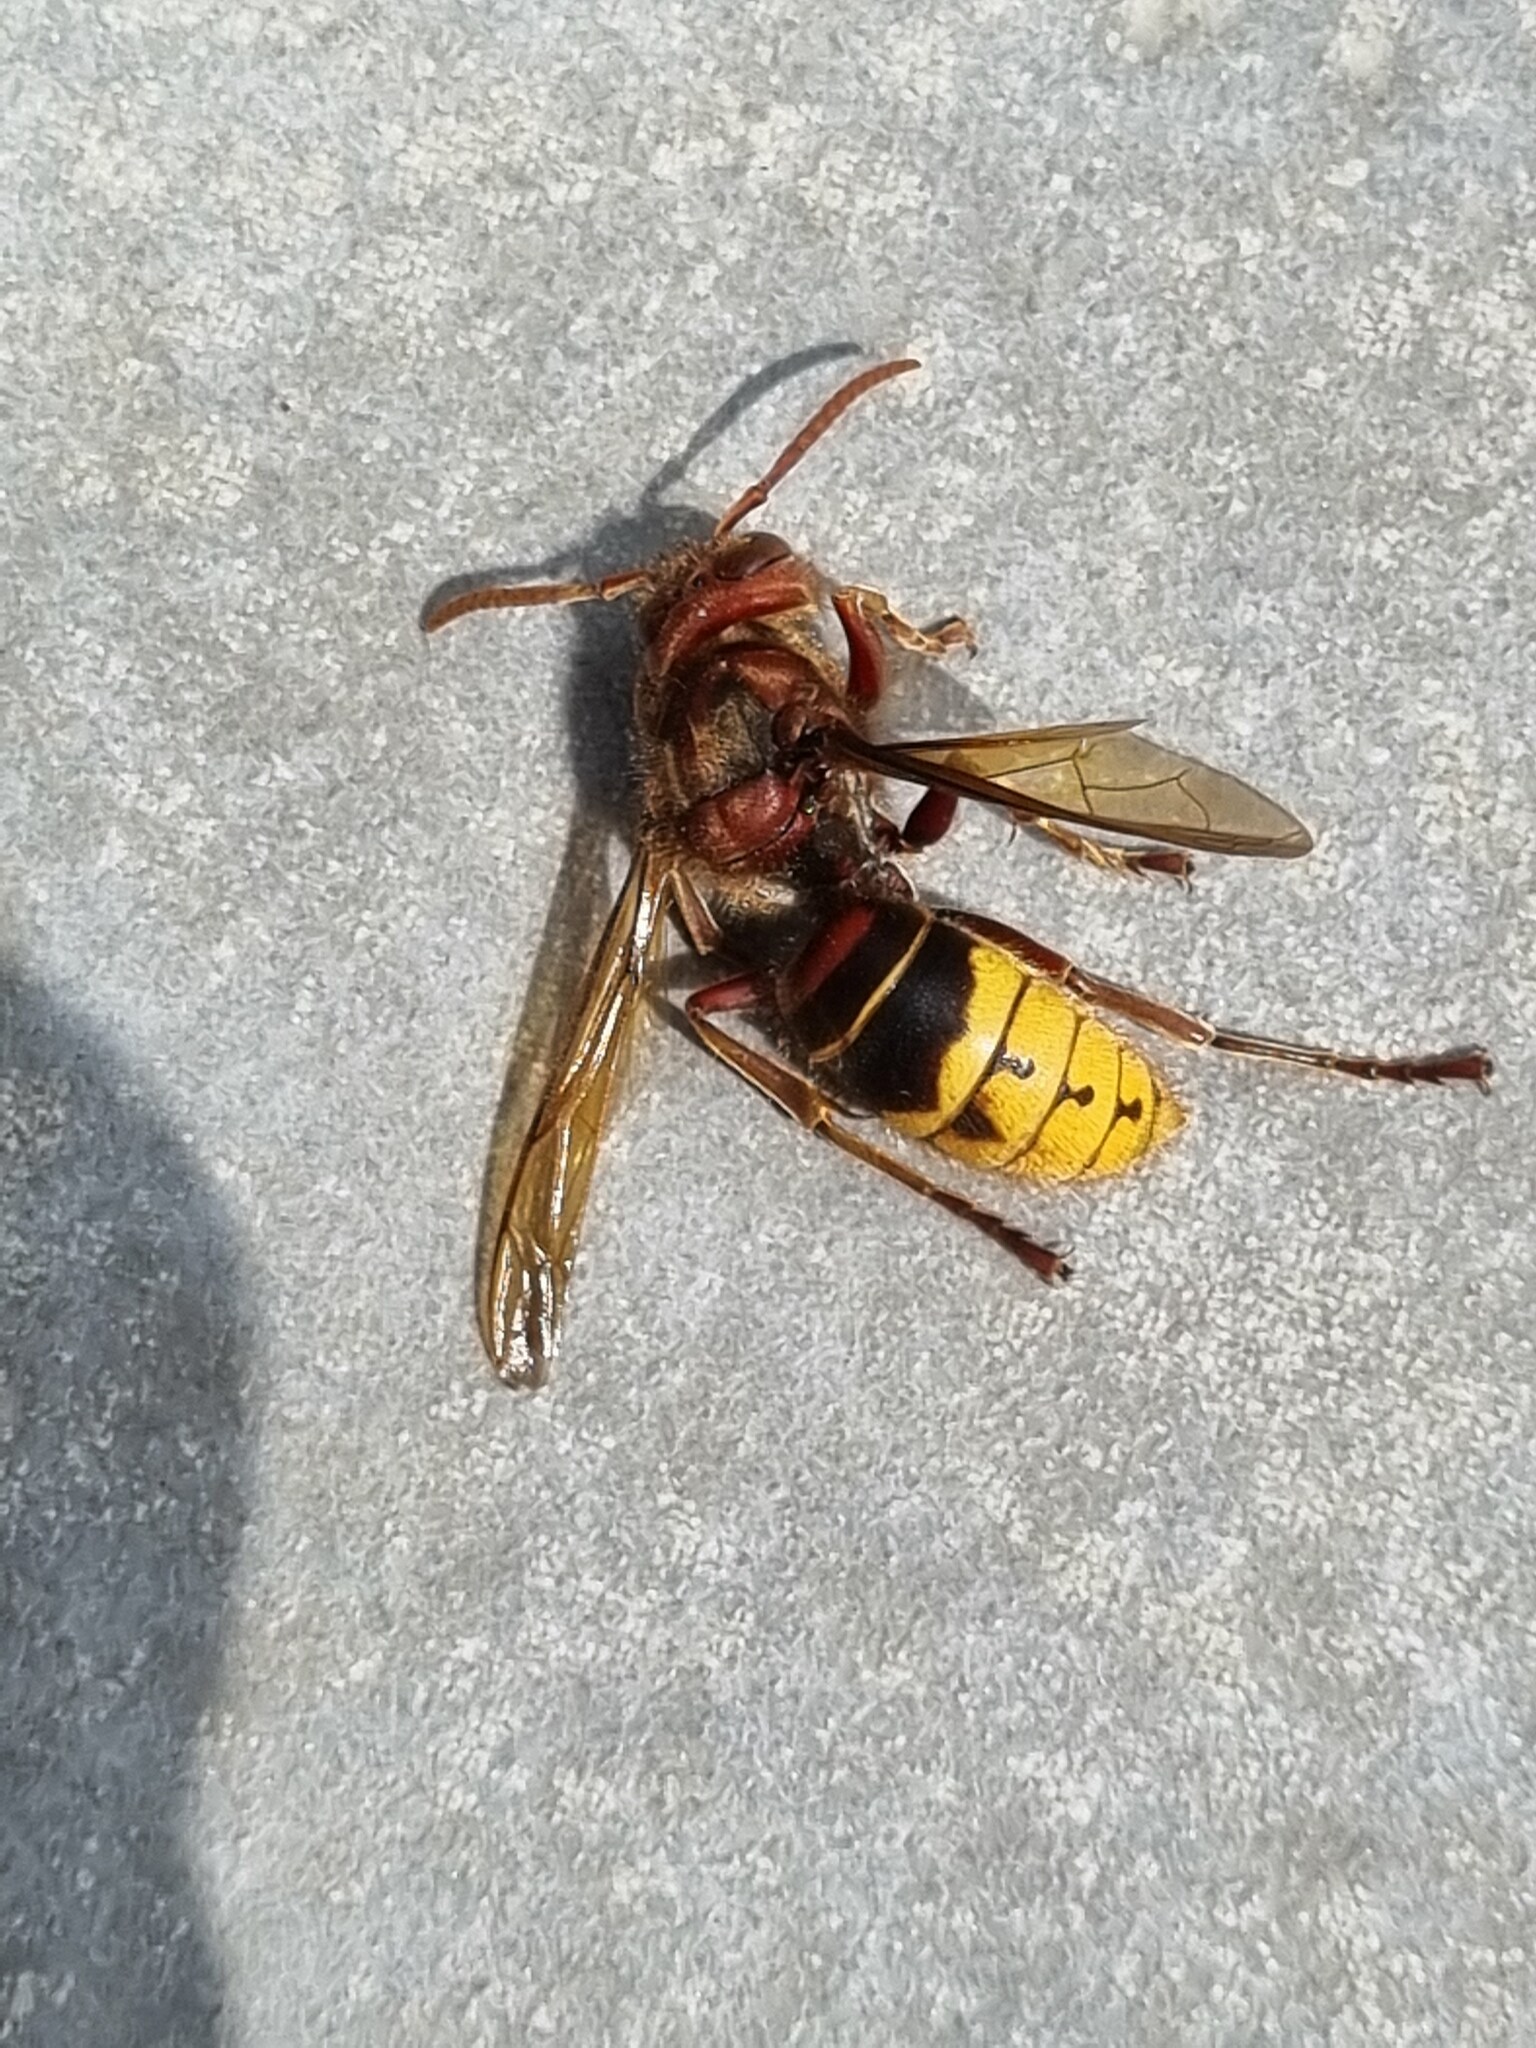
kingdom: Animalia
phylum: Arthropoda
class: Insecta
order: Hymenoptera
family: Vespidae
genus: Vespa
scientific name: Vespa crabro
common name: Hornet
